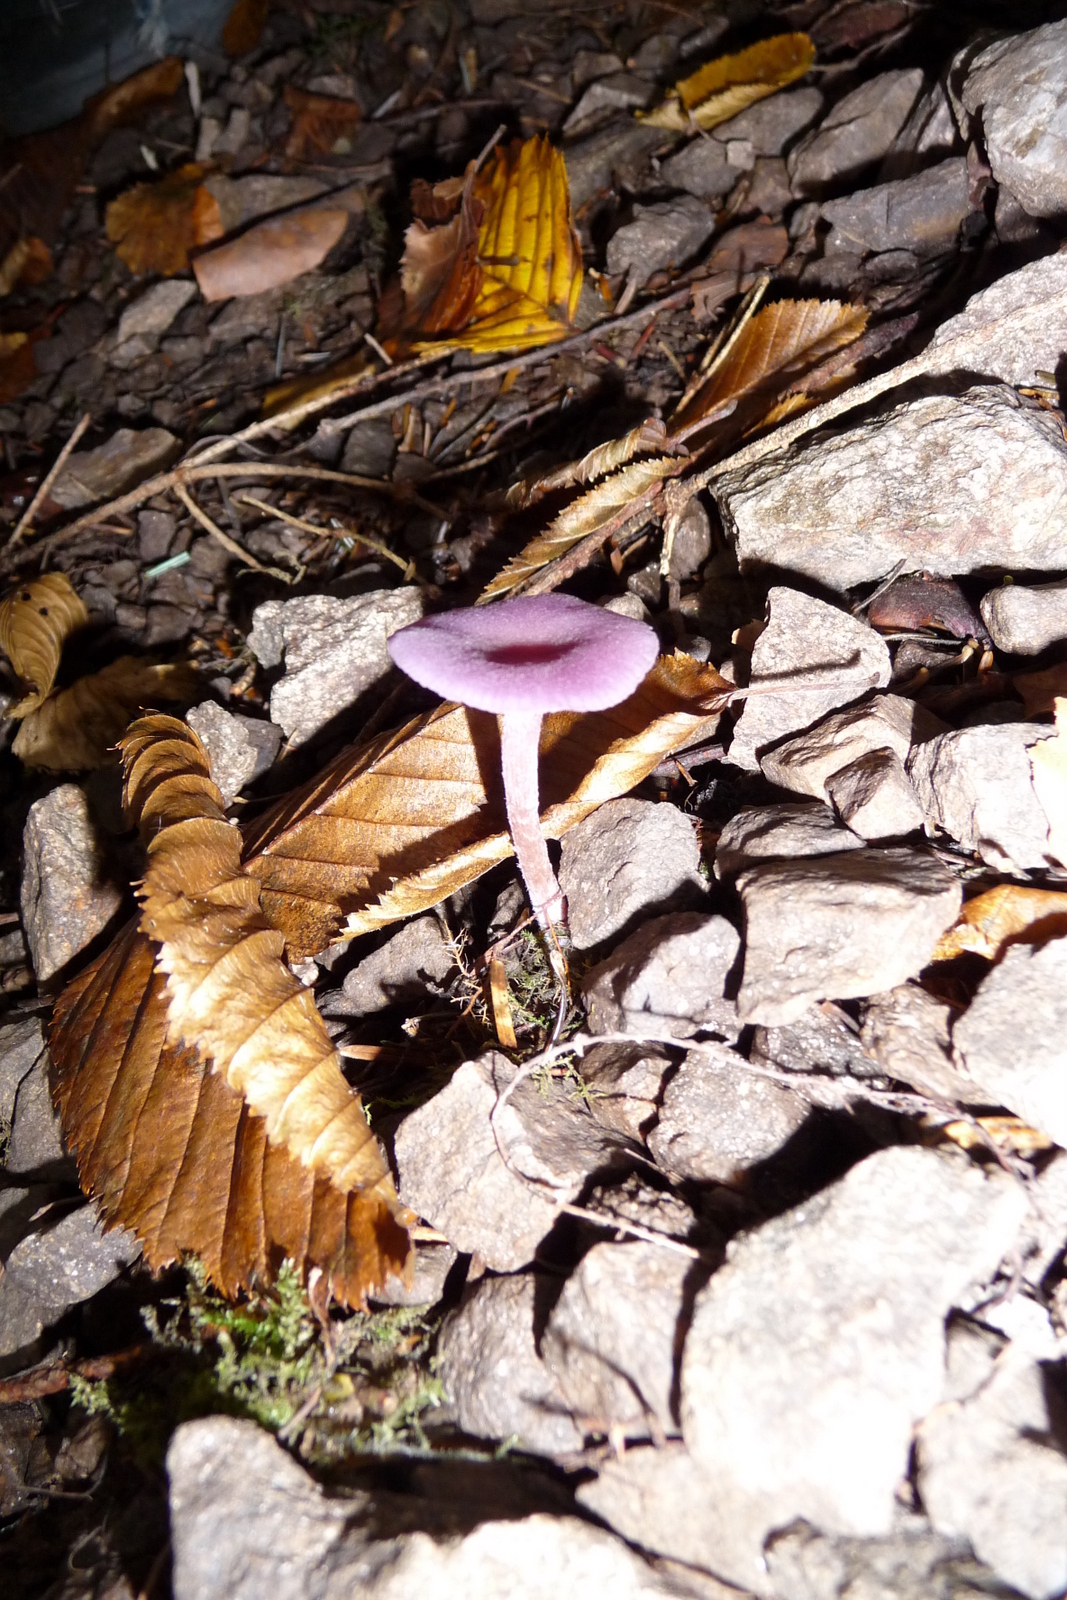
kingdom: Fungi
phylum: Basidiomycota
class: Agaricomycetes
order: Agaricales
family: Hydnangiaceae
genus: Laccaria
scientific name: Laccaria amethystina
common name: Amethyst deceiver
